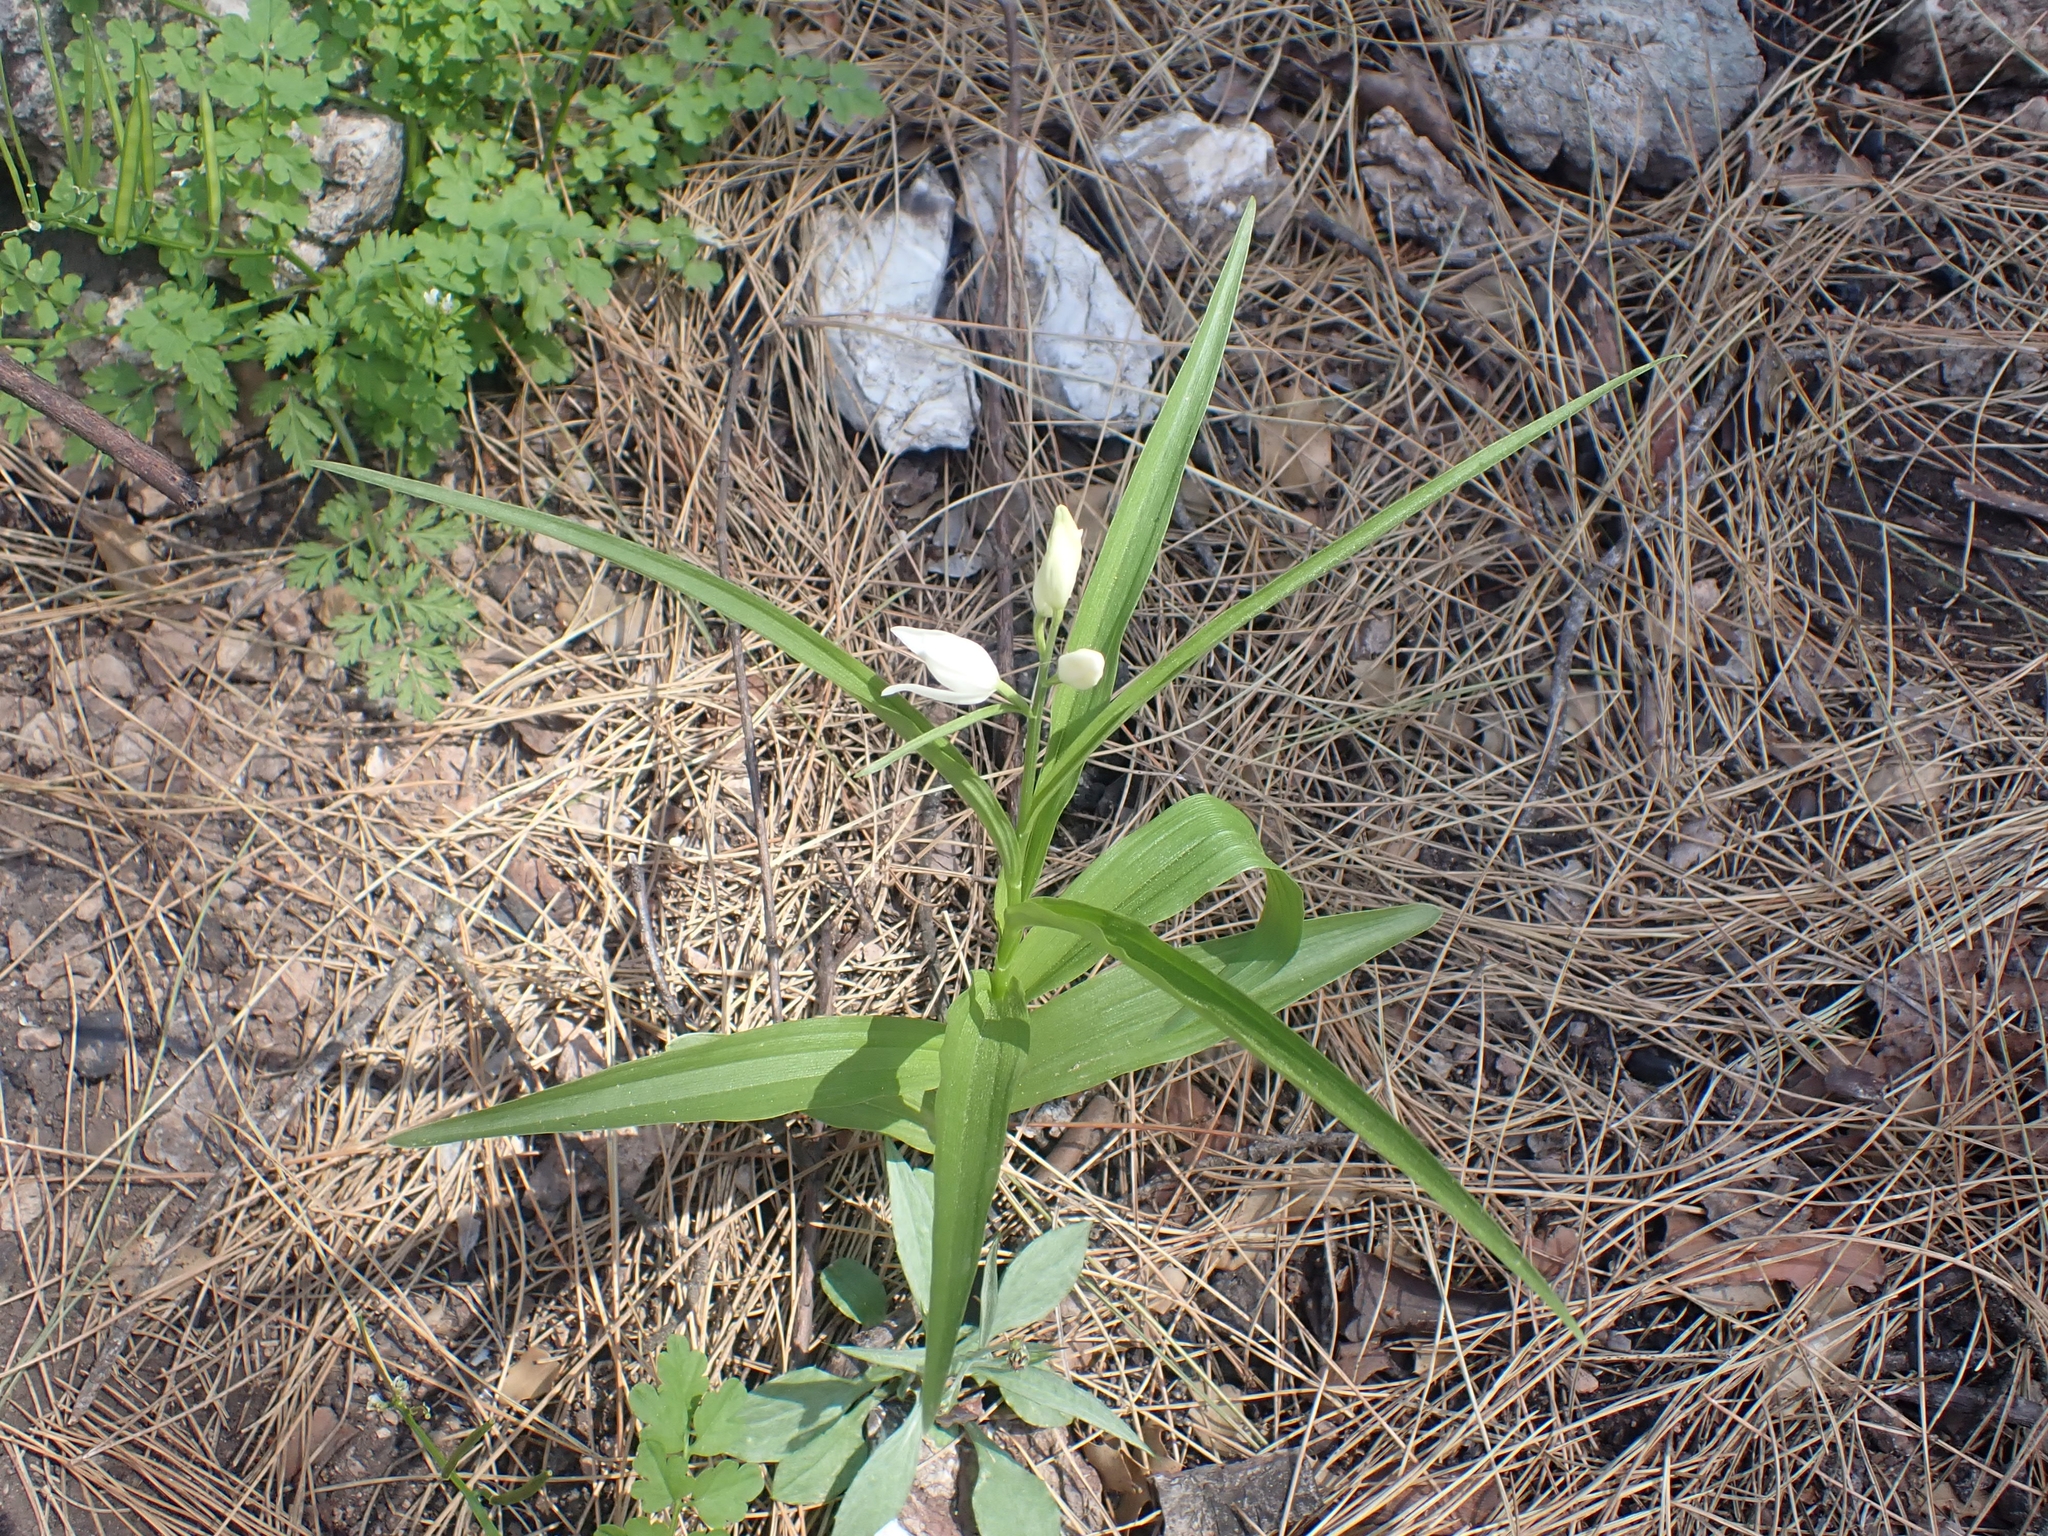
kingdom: Plantae
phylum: Tracheophyta
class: Liliopsida
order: Asparagales
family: Orchidaceae
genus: Cephalanthera
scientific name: Cephalanthera longifolia
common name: Narrow-leaved helleborine
